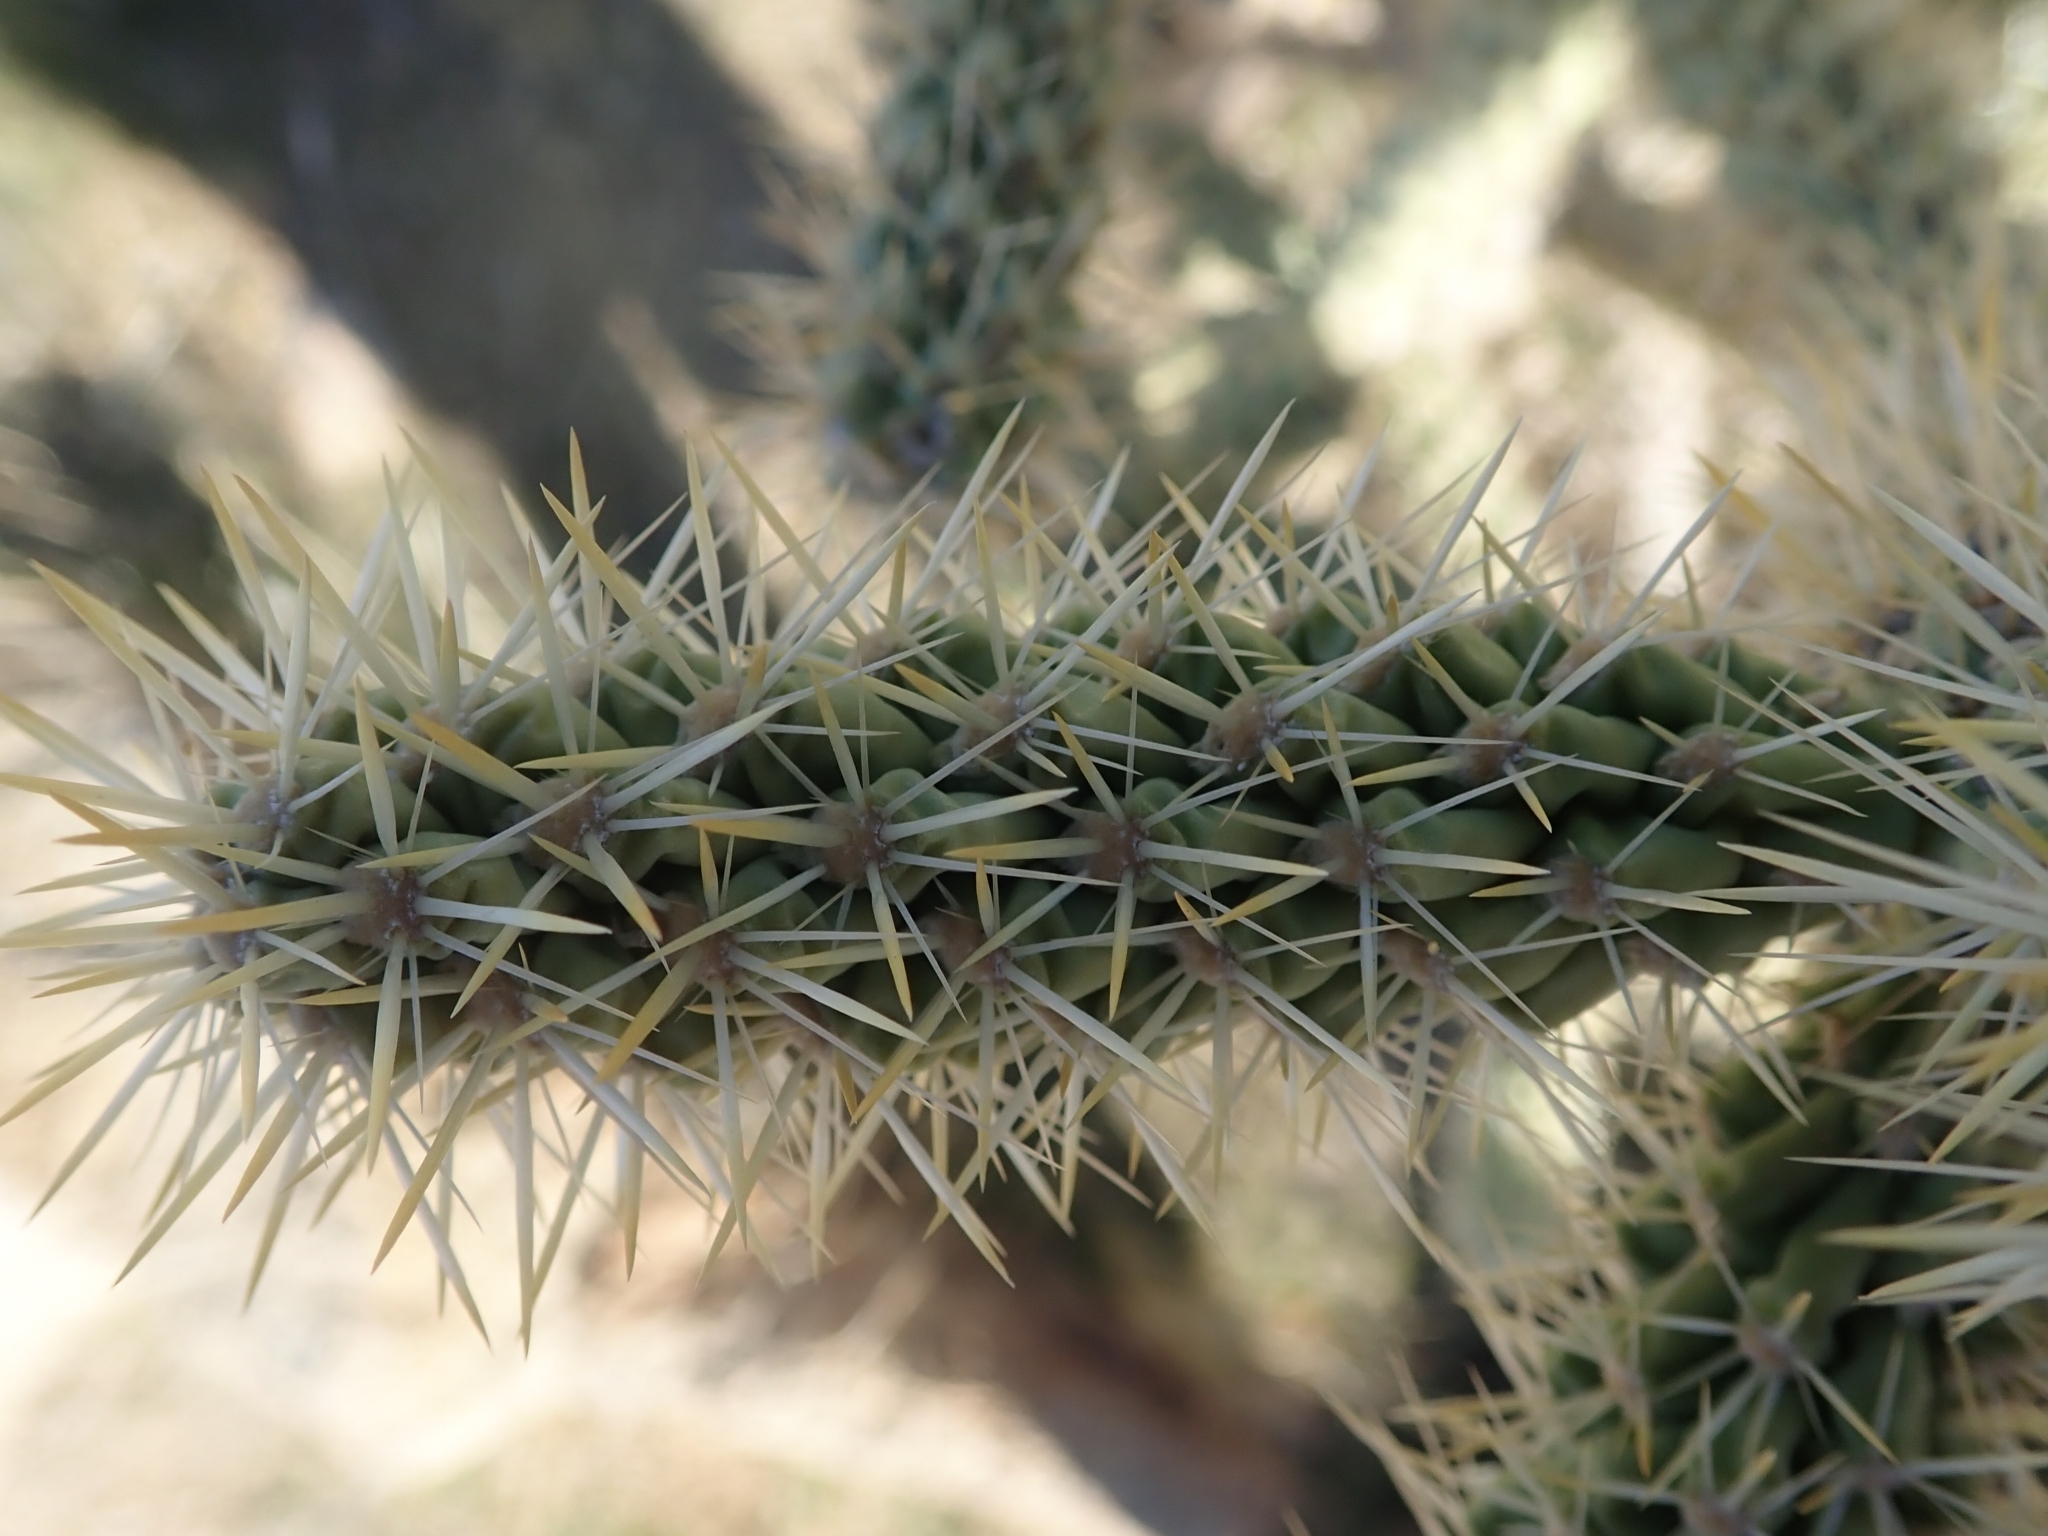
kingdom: Plantae
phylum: Tracheophyta
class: Magnoliopsida
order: Caryophyllales
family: Cactaceae
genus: Cylindropuntia
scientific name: Cylindropuntia echinocarpa
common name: Ground cholla
